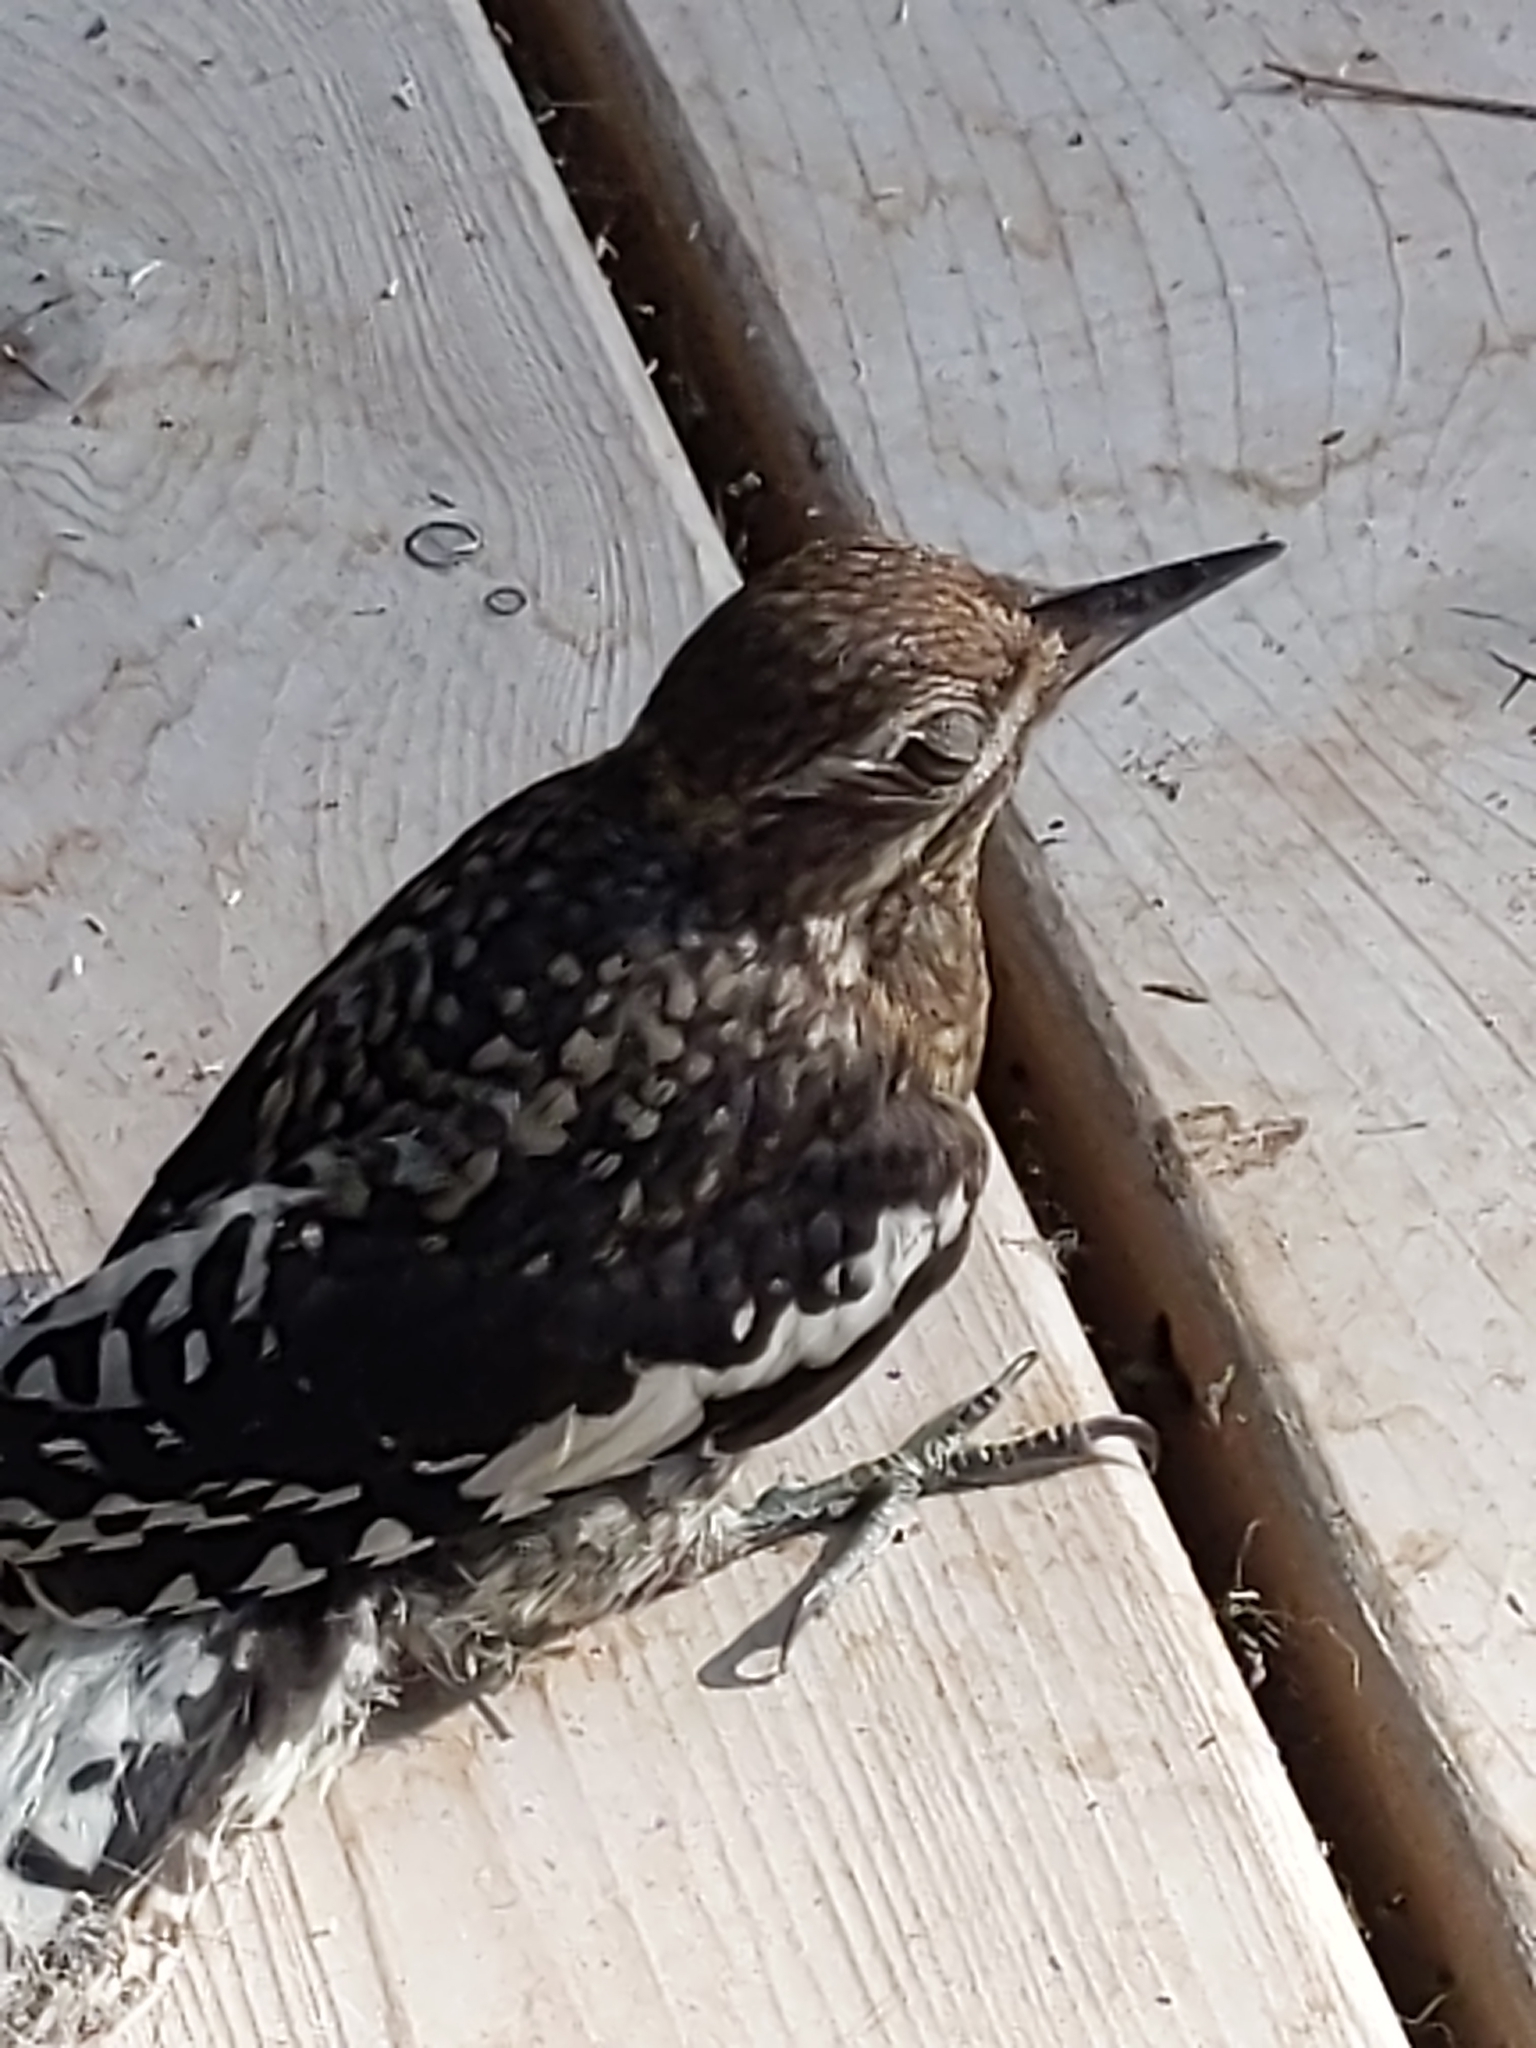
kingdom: Animalia
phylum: Chordata
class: Aves
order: Piciformes
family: Picidae
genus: Sphyrapicus
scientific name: Sphyrapicus varius
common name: Yellow-bellied sapsucker
